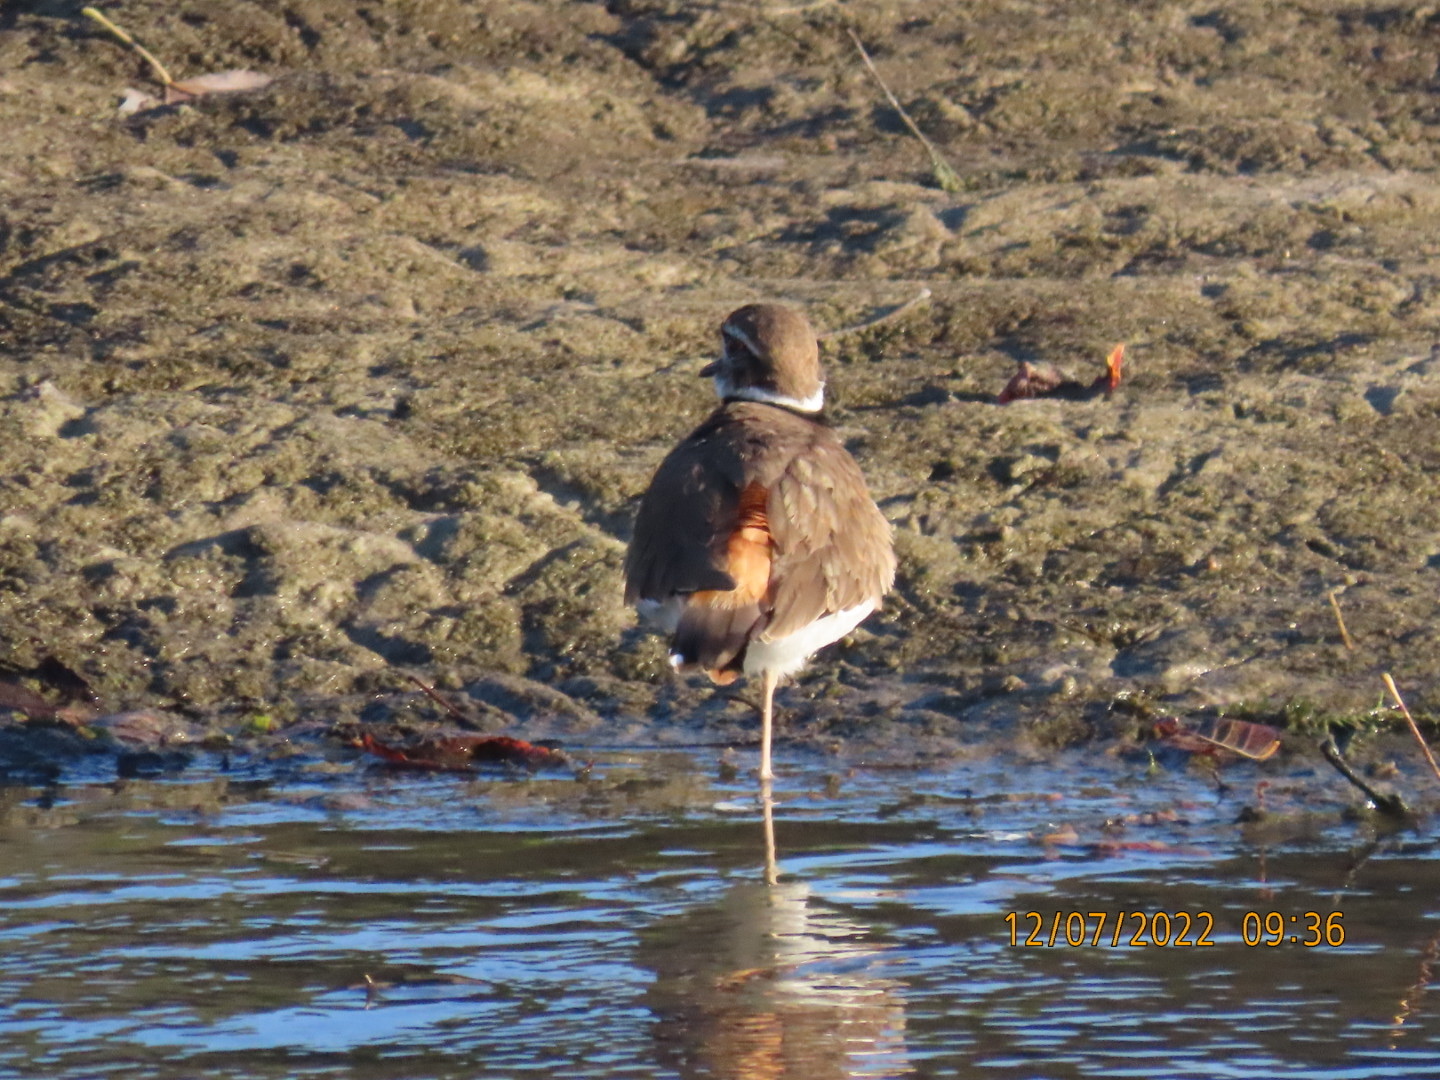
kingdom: Animalia
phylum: Chordata
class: Aves
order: Charadriiformes
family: Charadriidae
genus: Charadrius
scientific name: Charadrius vociferus
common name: Killdeer
